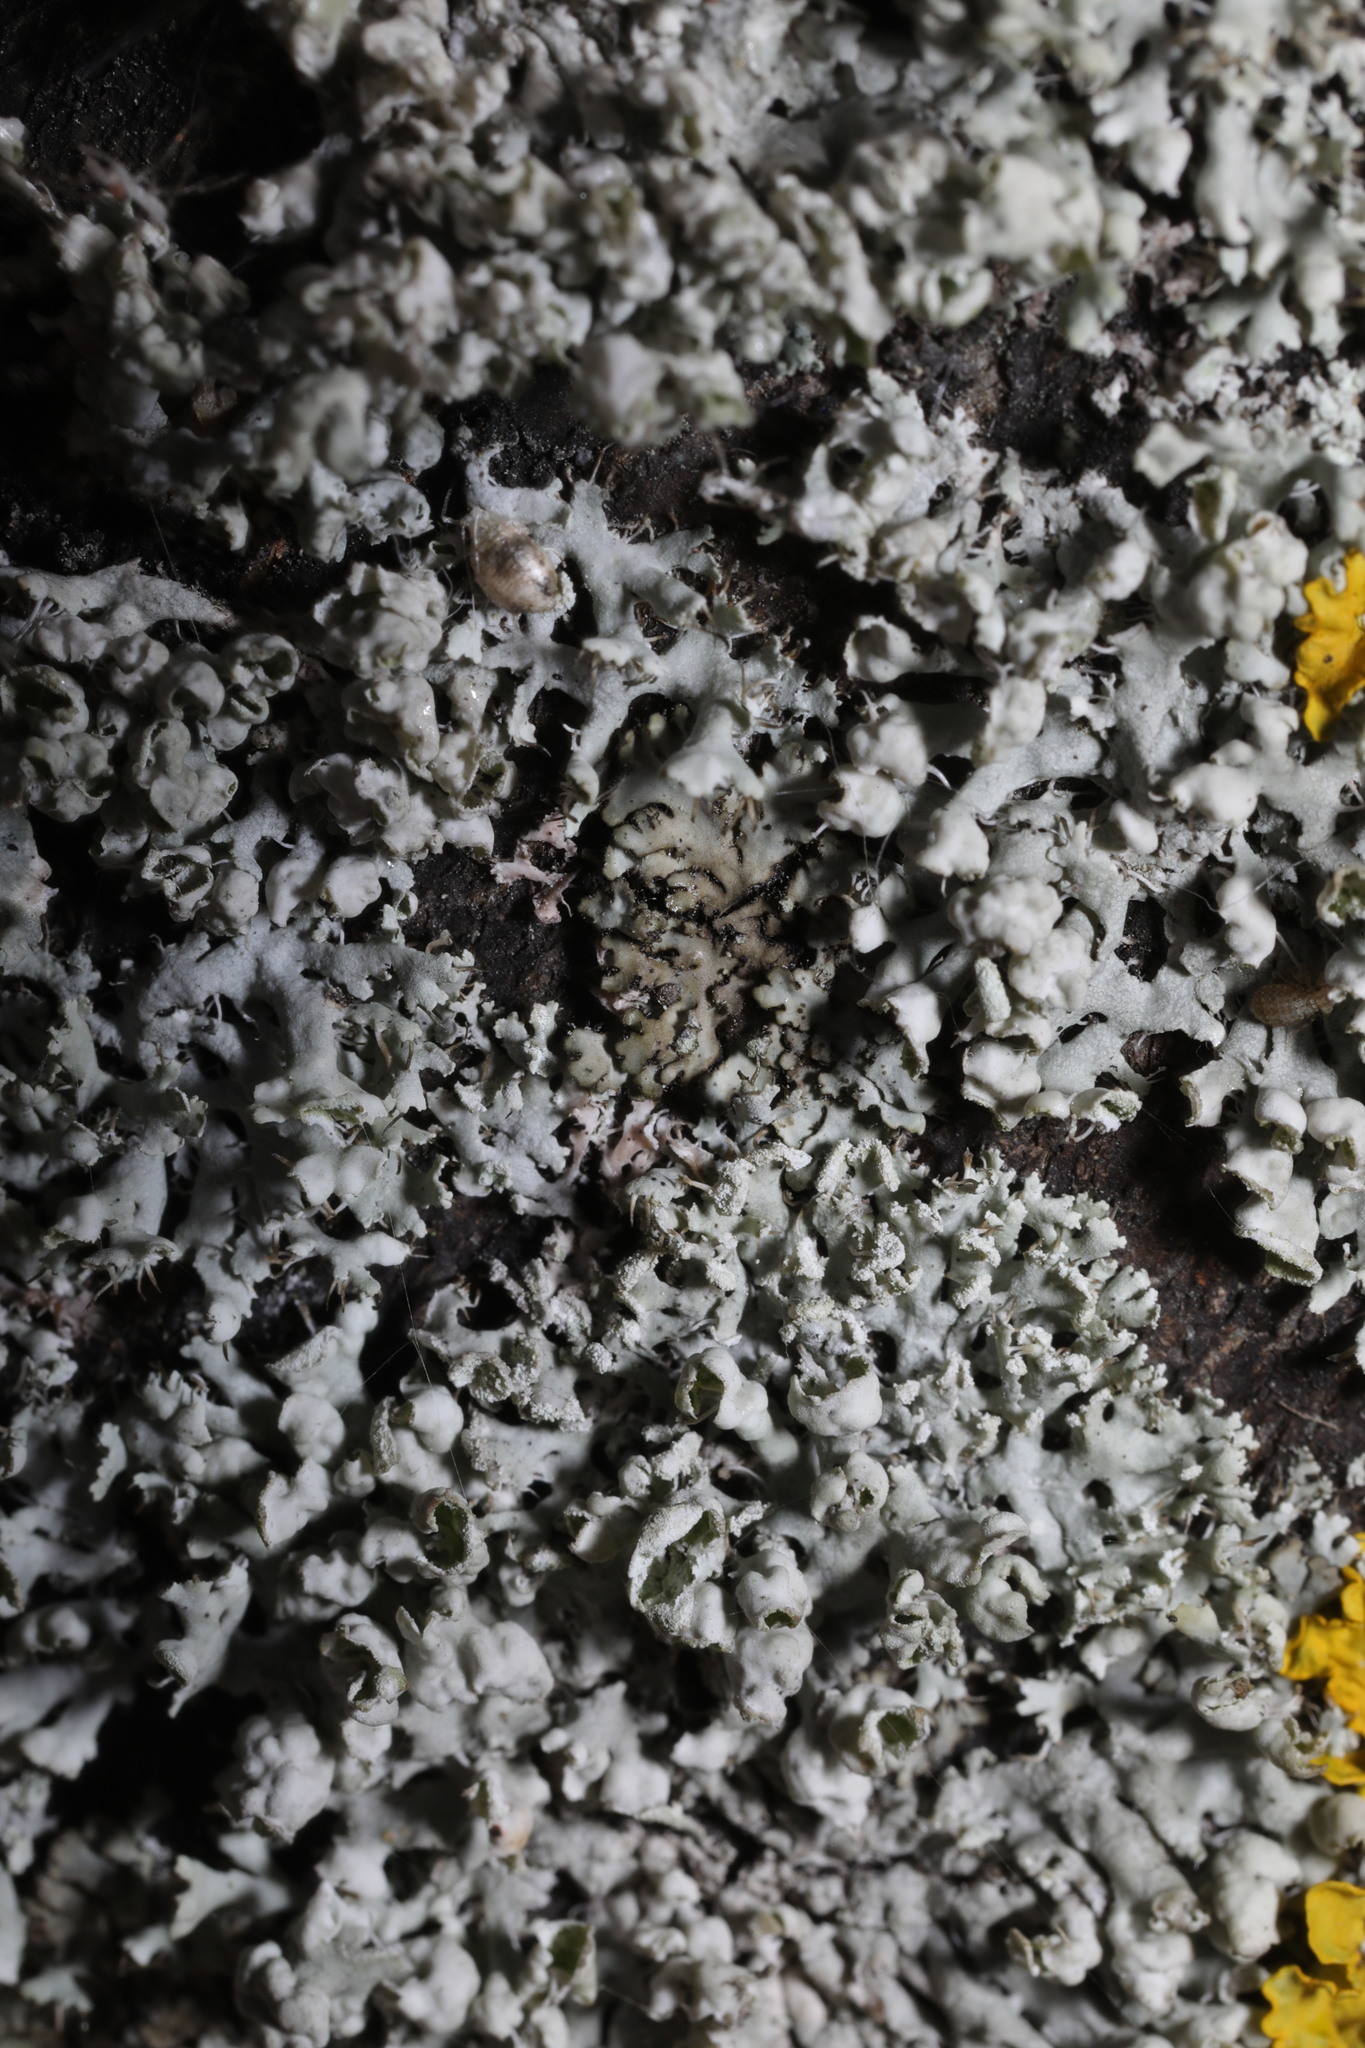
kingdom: Fungi
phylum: Ascomycota
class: Lecanoromycetes
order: Caliciales
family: Physciaceae
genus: Physcia
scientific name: Physcia adscendens
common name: Hooded rosette lichen
